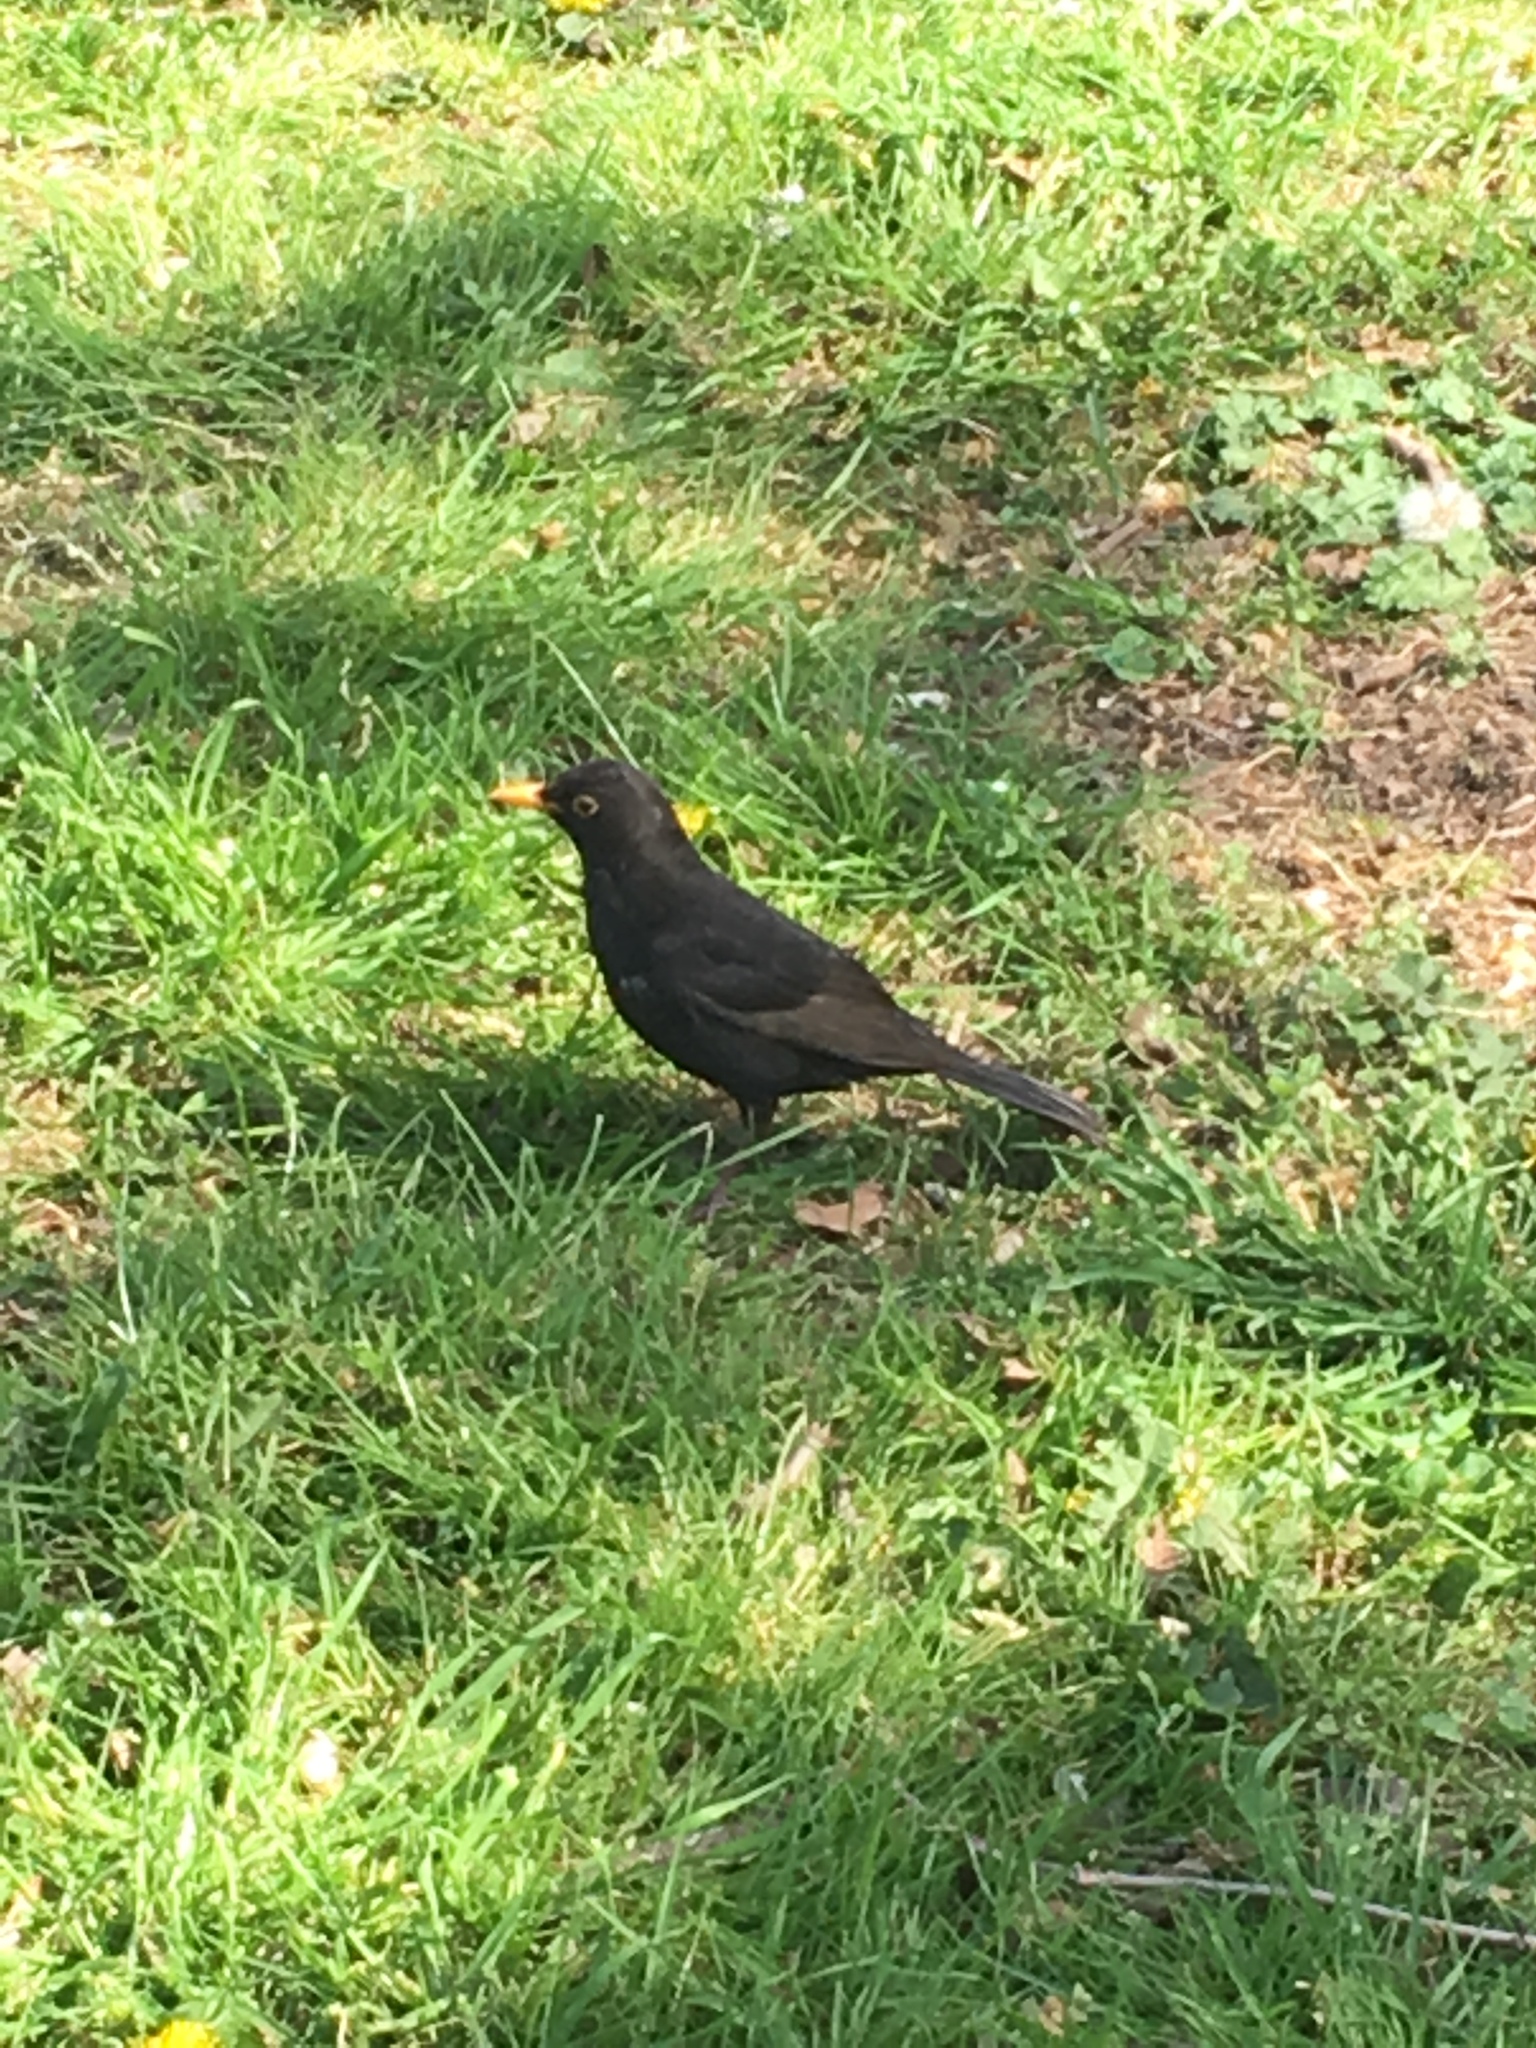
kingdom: Animalia
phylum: Chordata
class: Aves
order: Passeriformes
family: Turdidae
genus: Turdus
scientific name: Turdus merula
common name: Common blackbird
